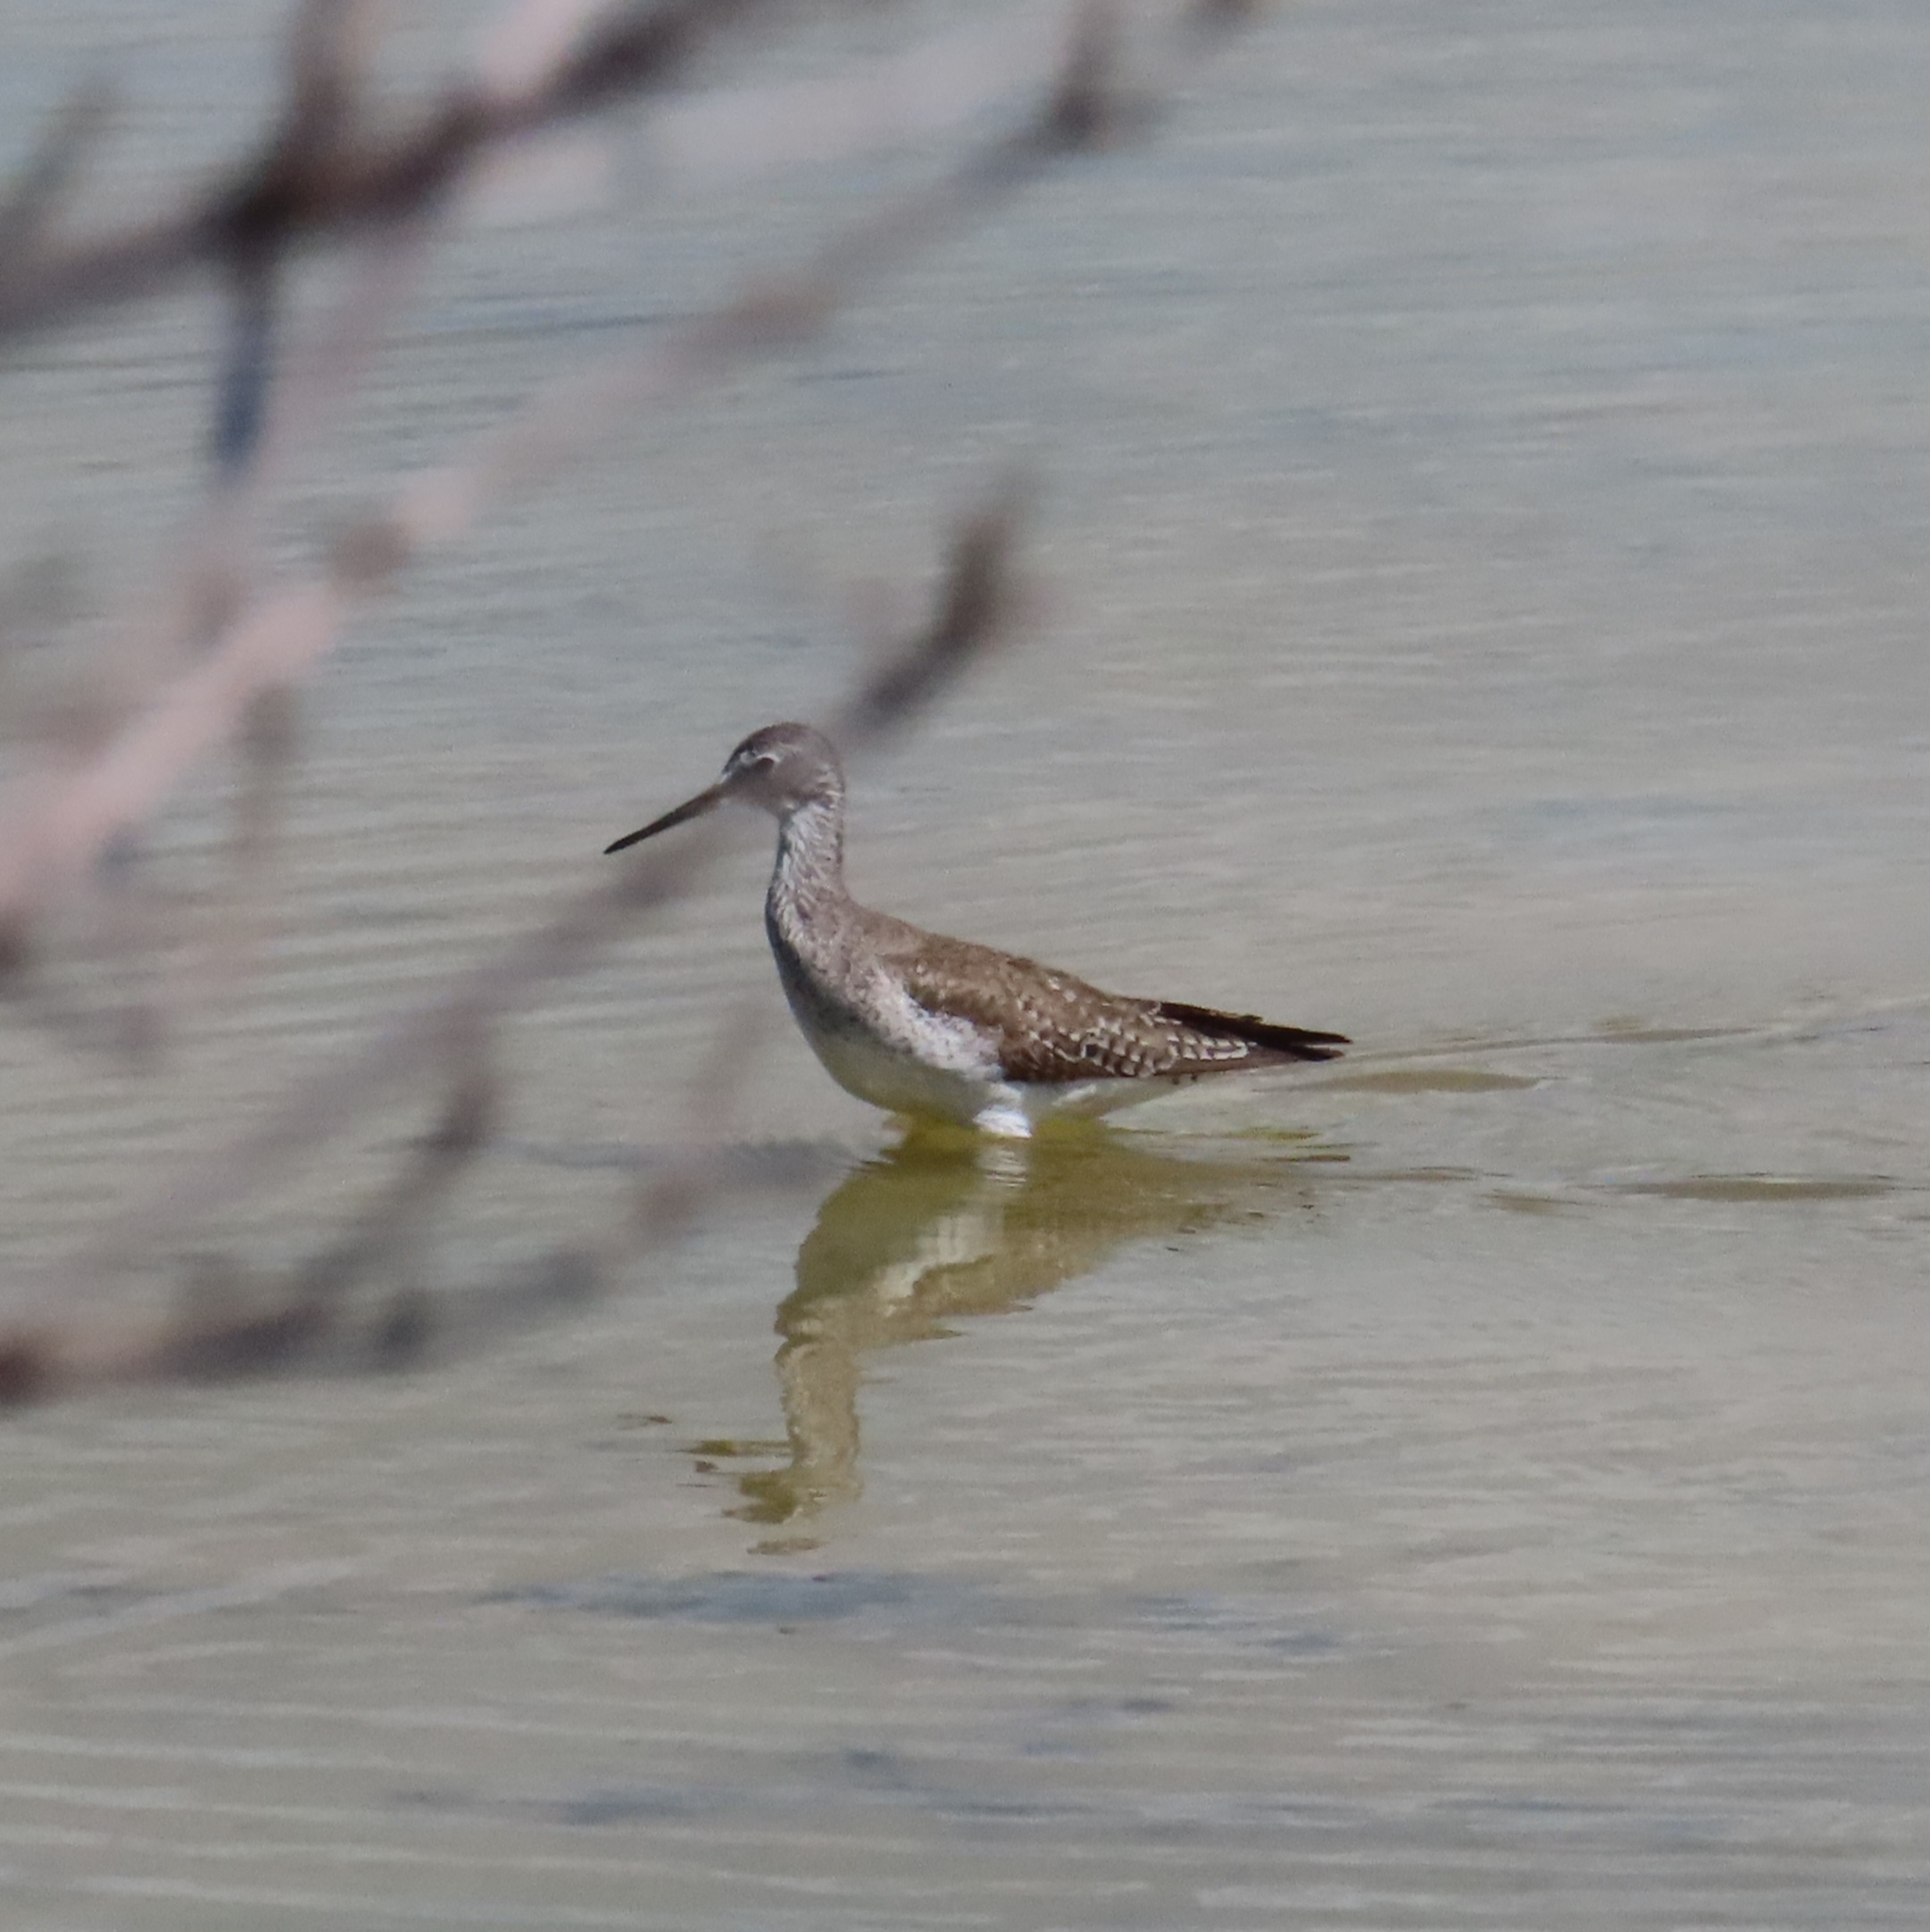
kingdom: Animalia
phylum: Chordata
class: Aves
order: Charadriiformes
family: Scolopacidae
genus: Tringa
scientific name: Tringa melanoleuca
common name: Greater yellowlegs
